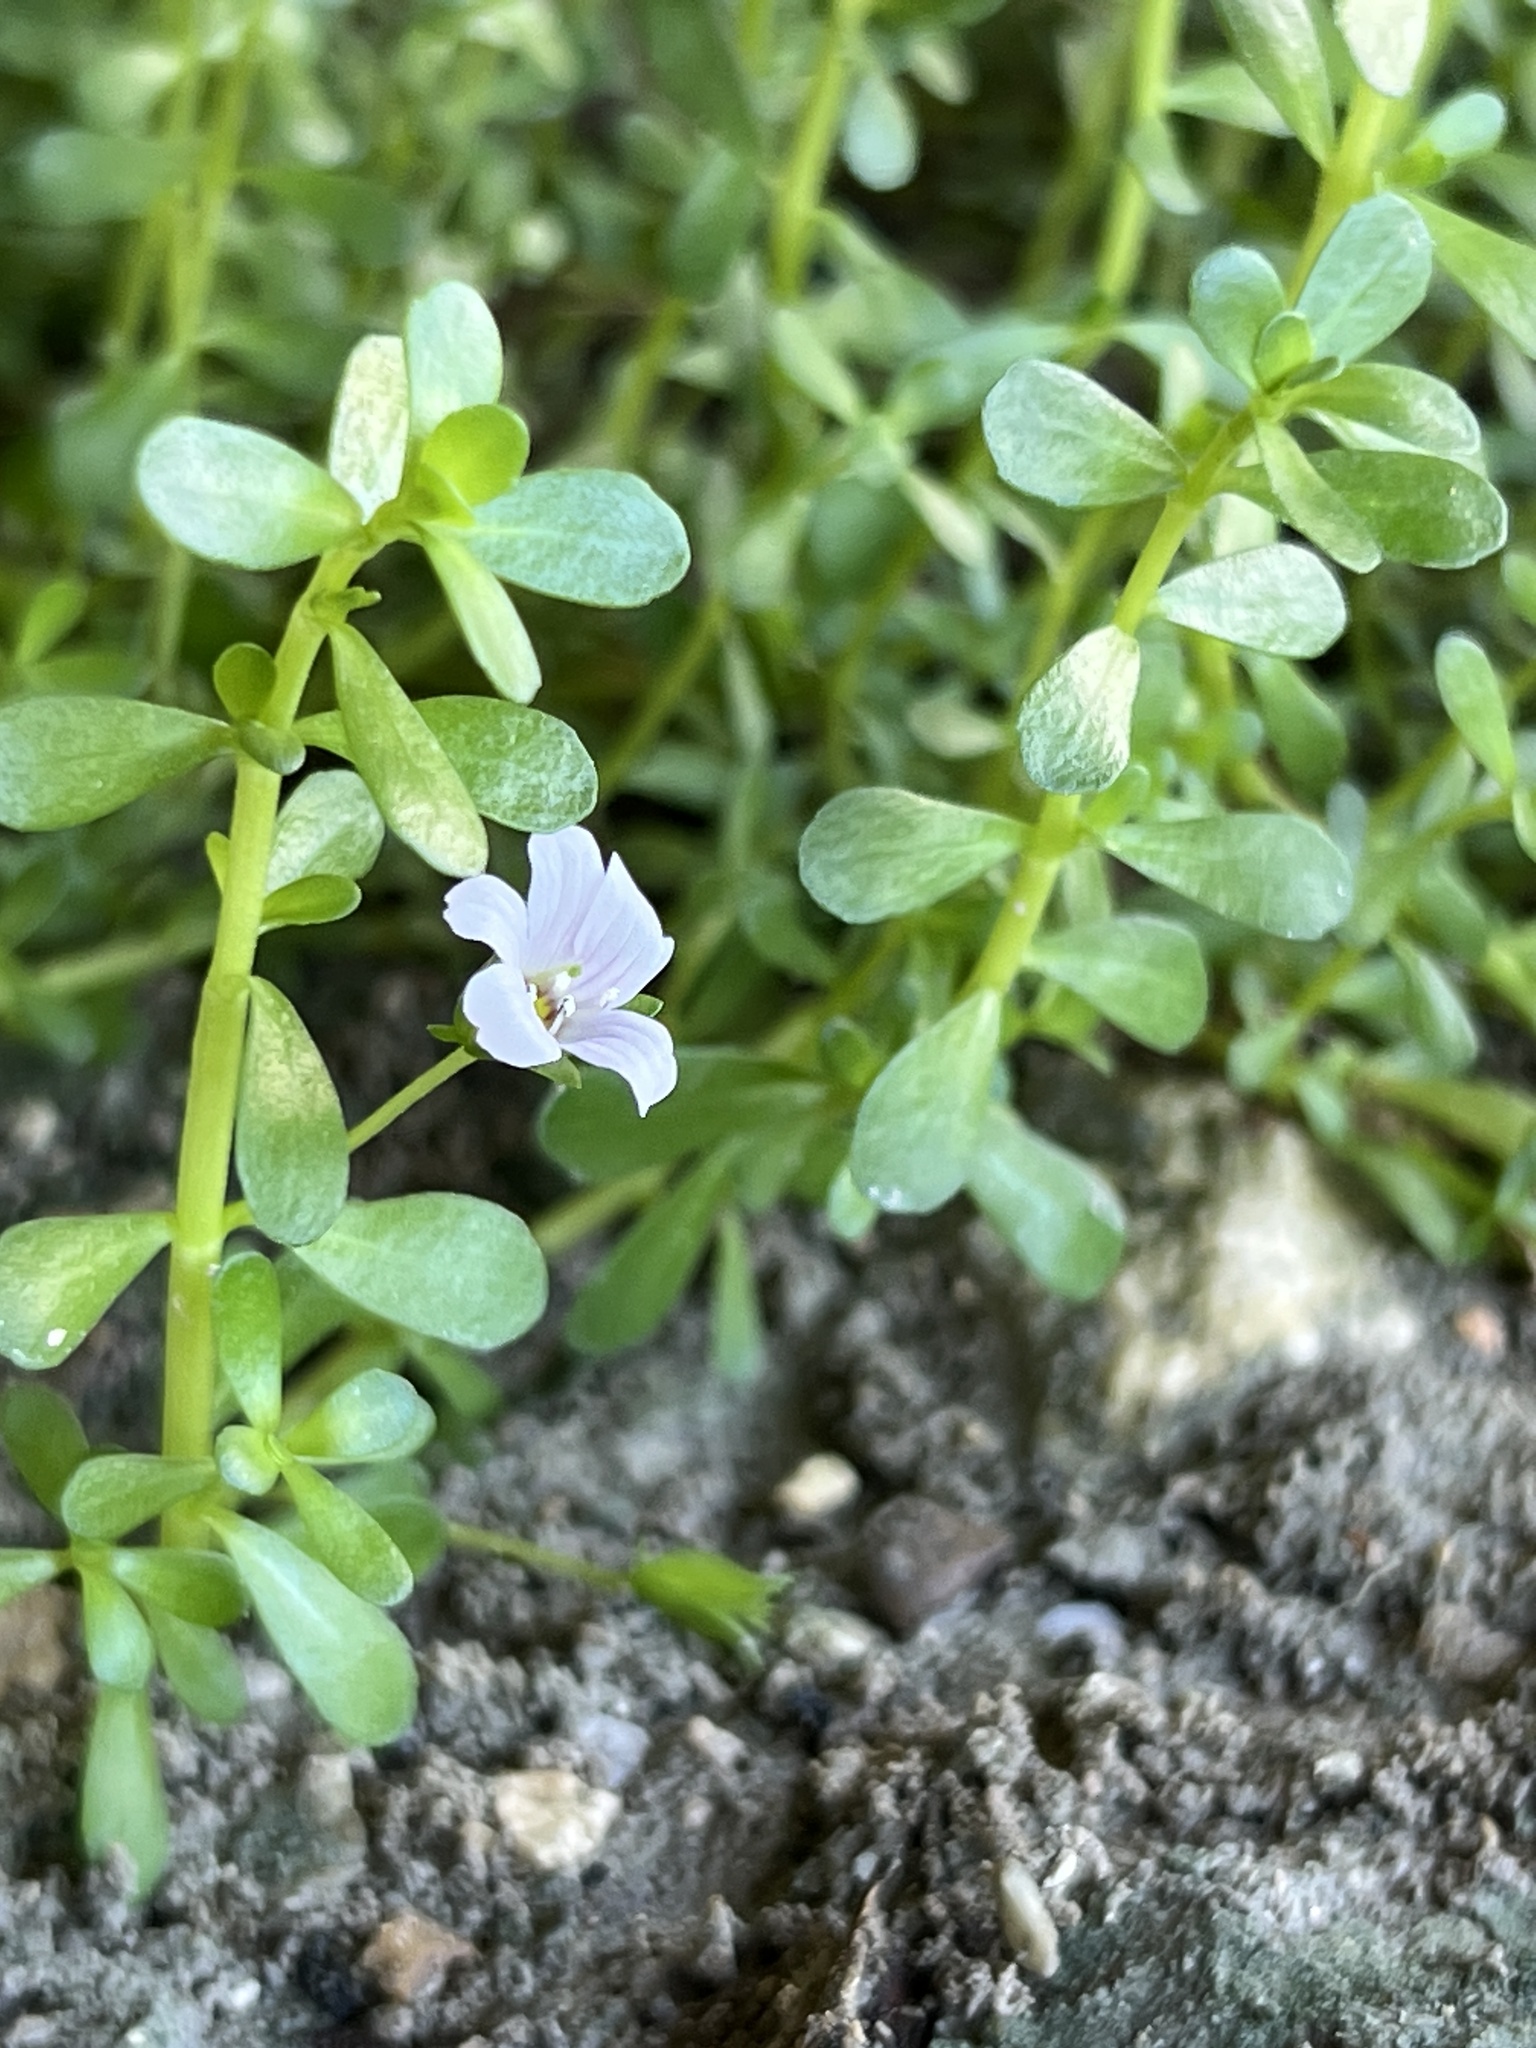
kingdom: Plantae
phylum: Tracheophyta
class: Magnoliopsida
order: Lamiales
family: Plantaginaceae
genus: Bacopa
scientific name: Bacopa monnieri
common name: Indian-pennywort
